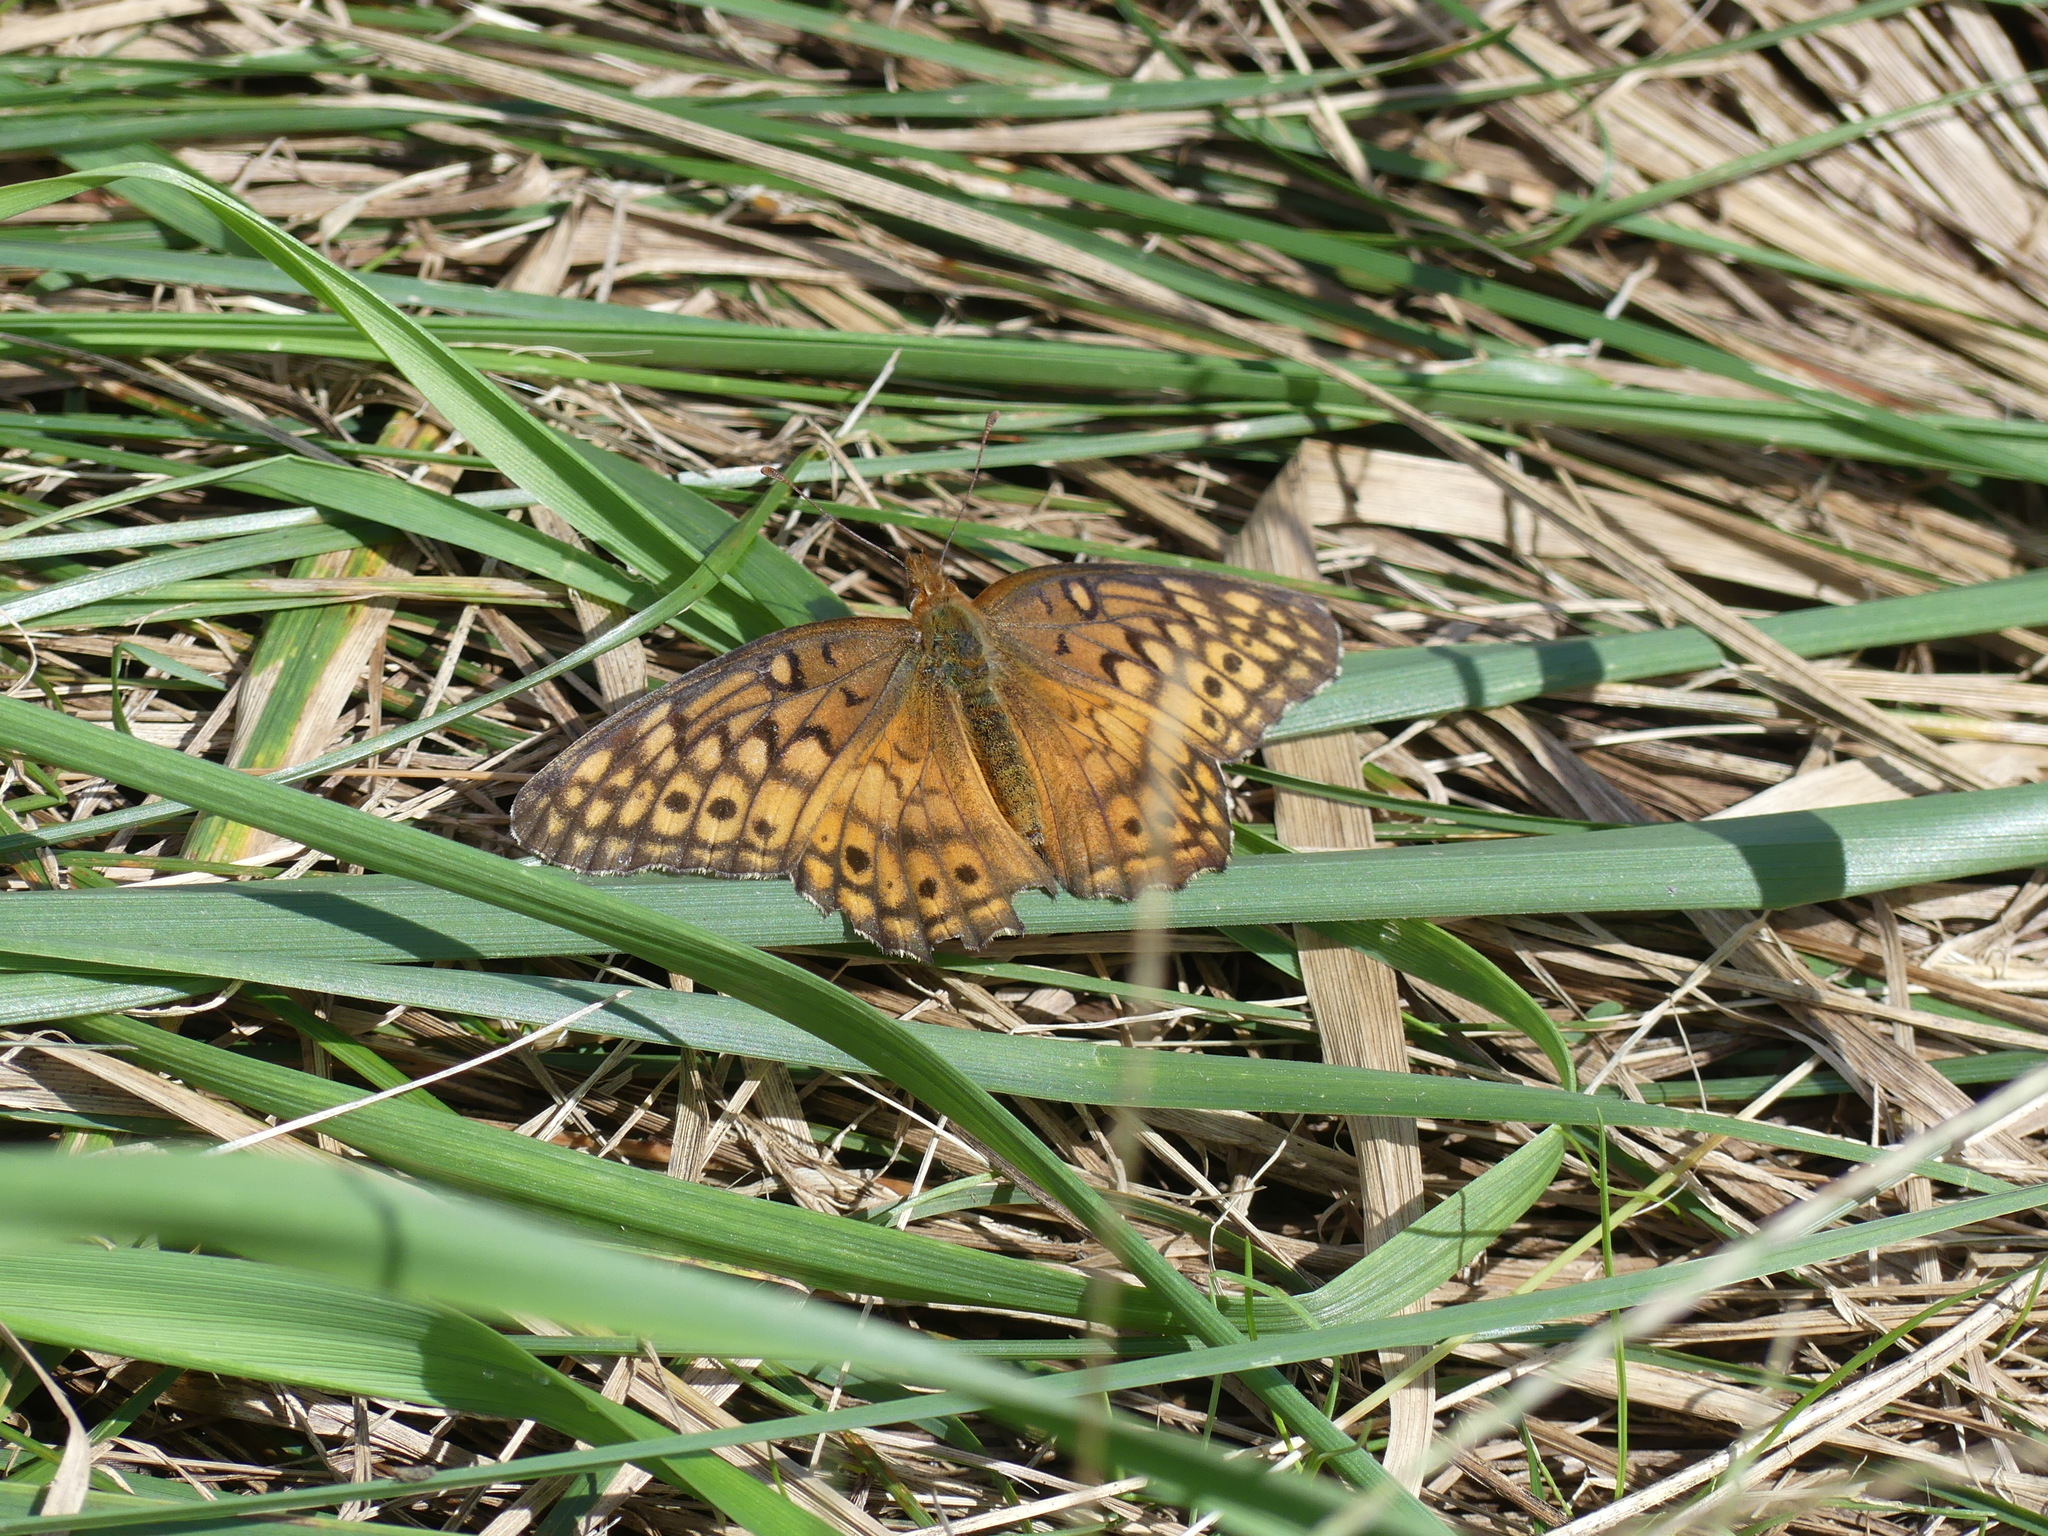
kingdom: Animalia
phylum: Arthropoda
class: Insecta
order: Lepidoptera
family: Nymphalidae
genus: Euptoieta
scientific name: Euptoieta claudia
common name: Variegated fritillary
